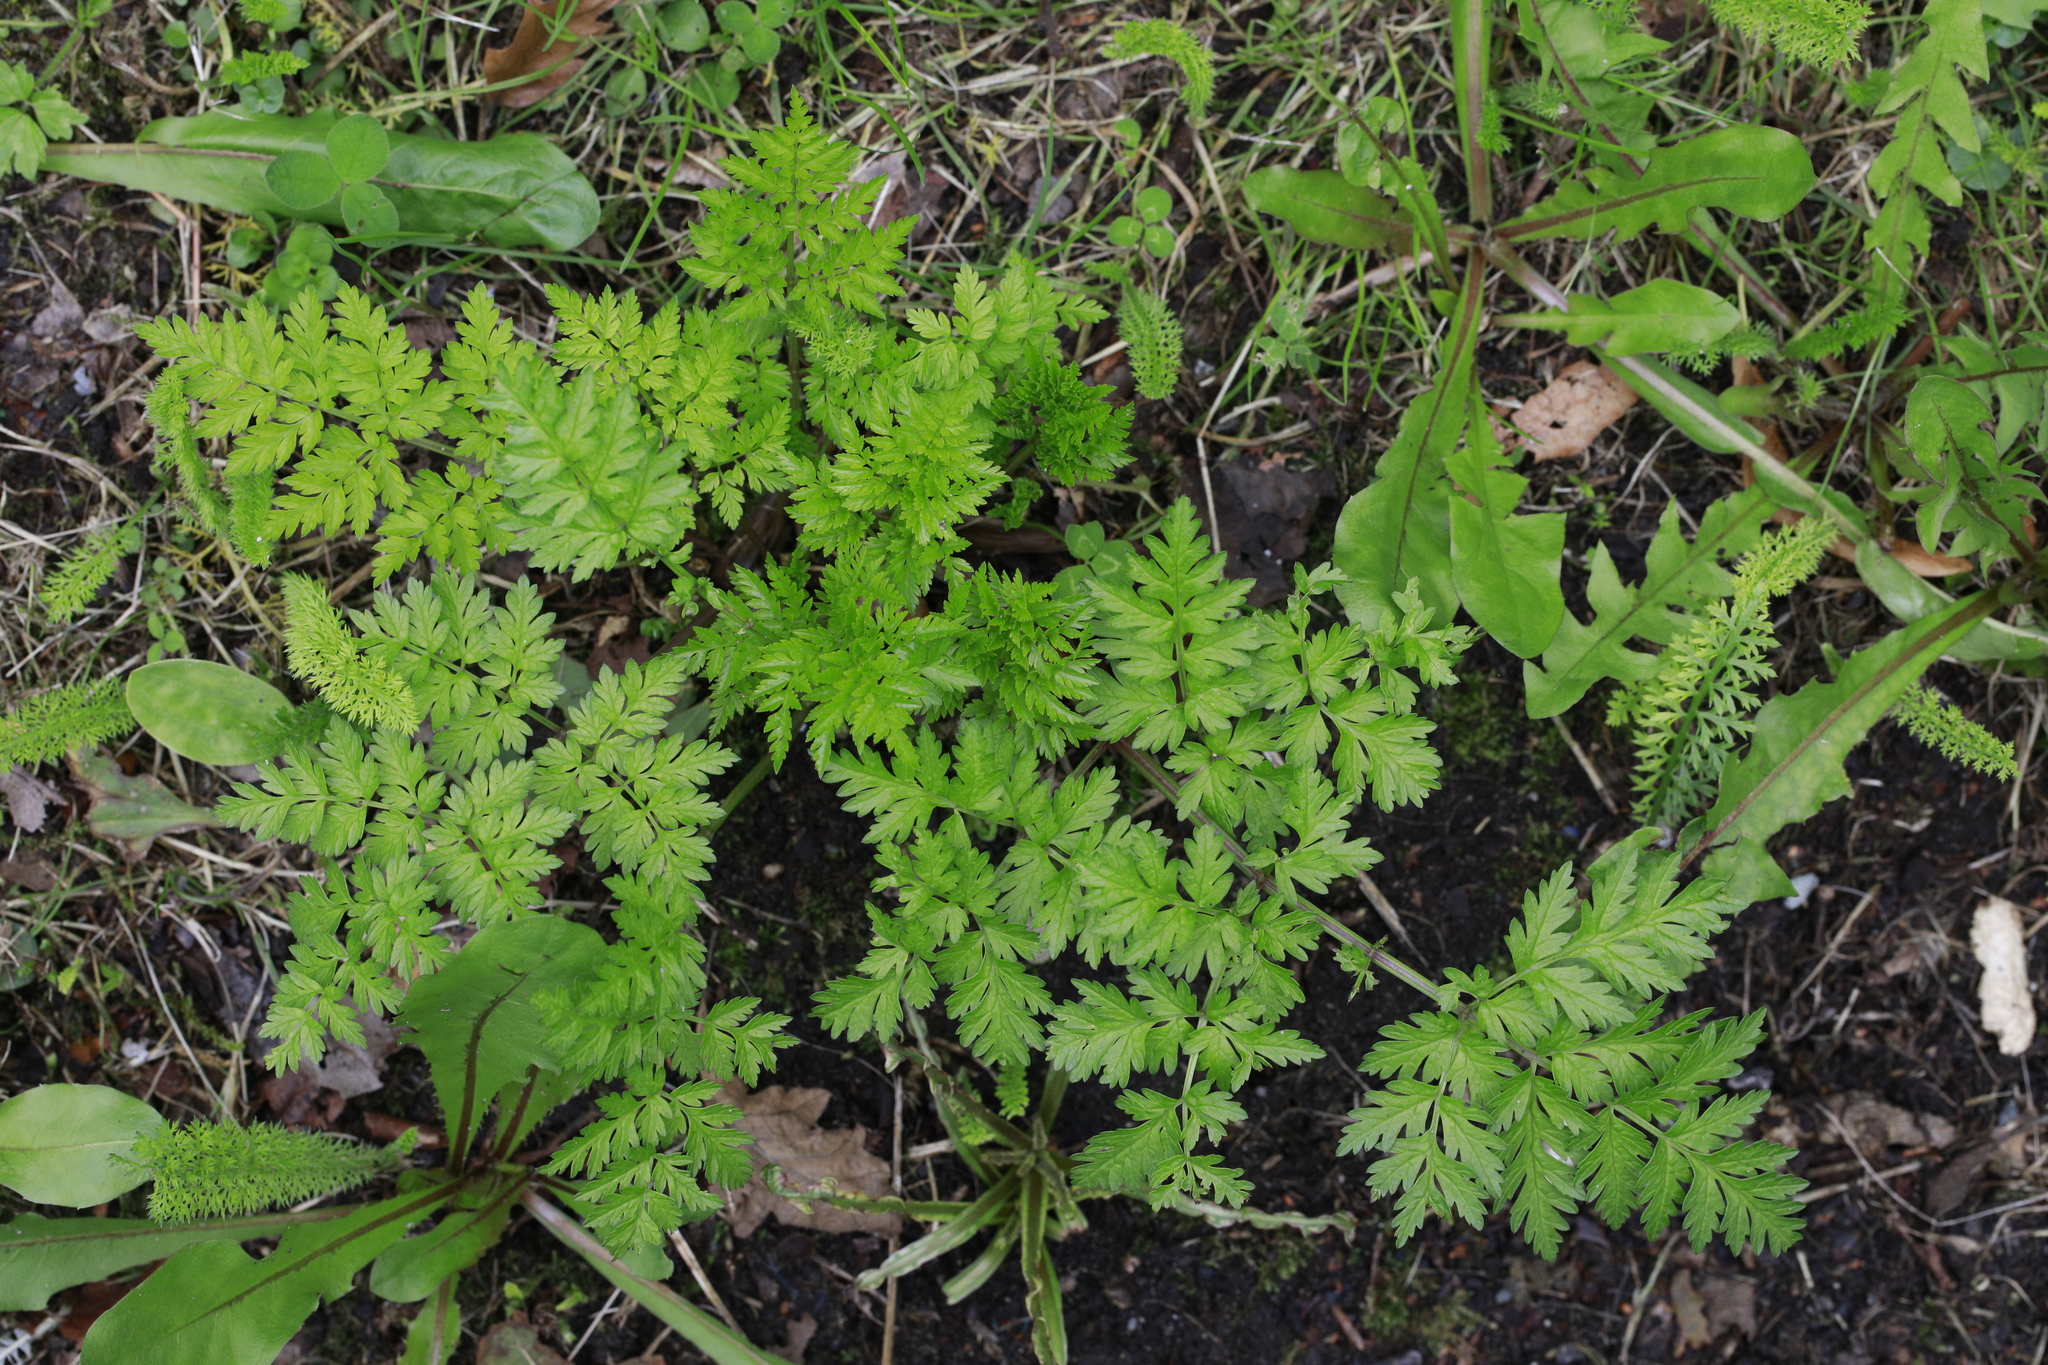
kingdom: Plantae
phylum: Tracheophyta
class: Magnoliopsida
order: Apiales
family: Apiaceae
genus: Anthriscus
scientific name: Anthriscus sylvestris
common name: Cow parsley
